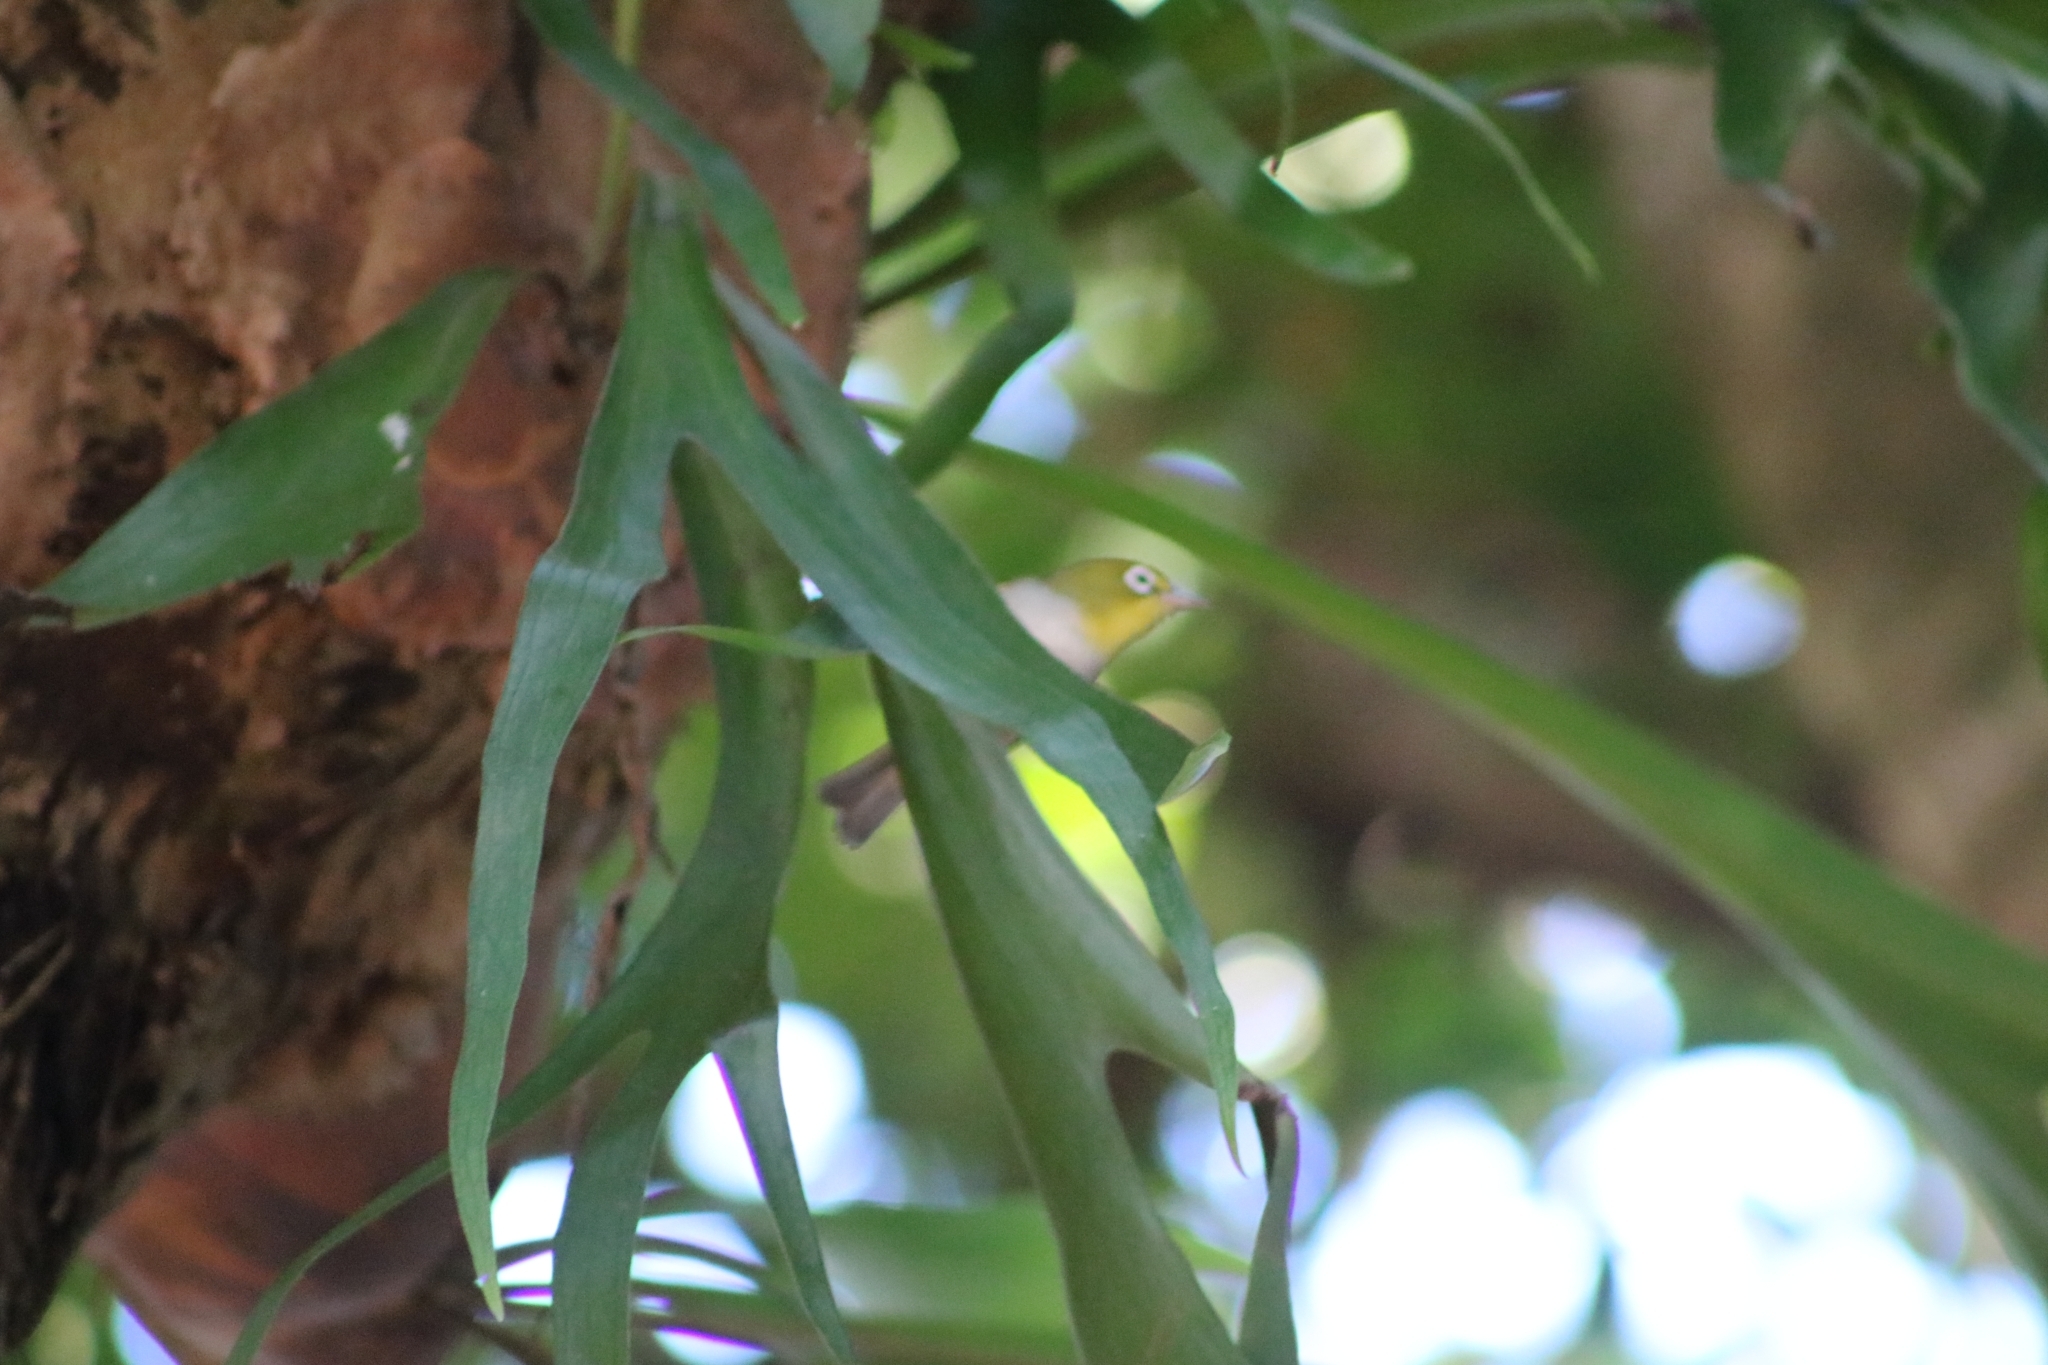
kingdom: Animalia
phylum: Chordata
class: Aves
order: Passeriformes
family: Zosteropidae
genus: Zosterops
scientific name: Zosterops lateralis
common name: Silvereye
